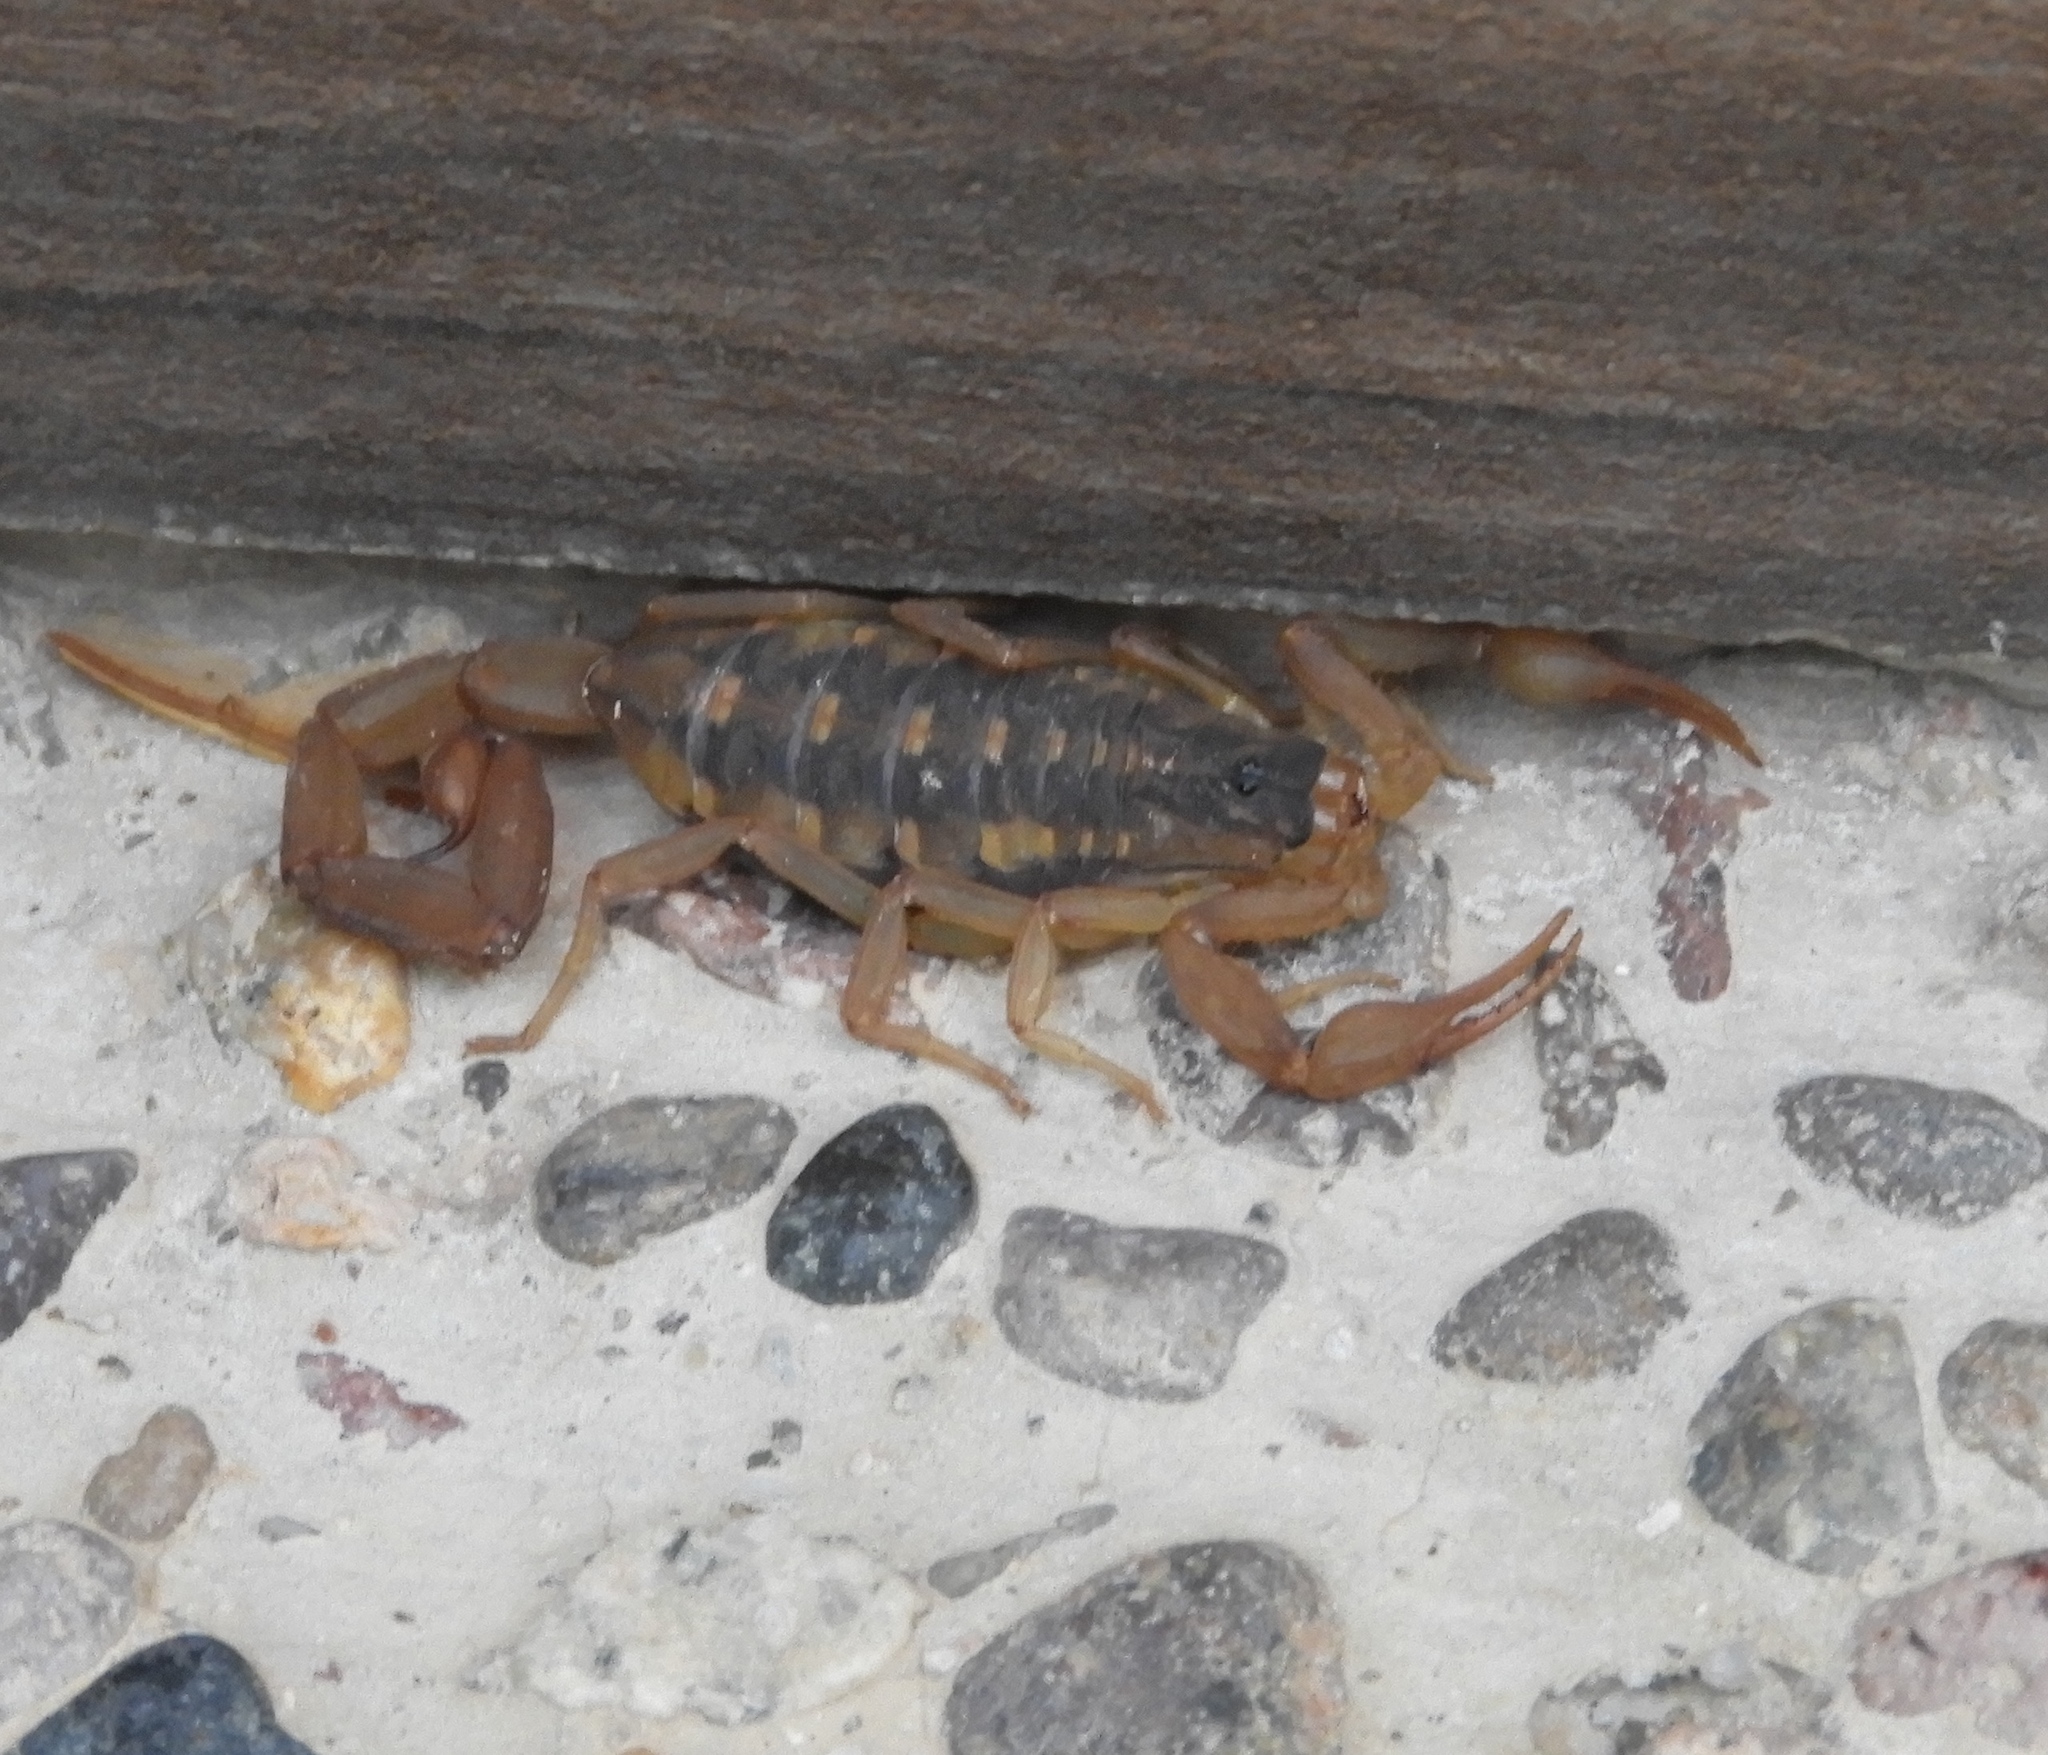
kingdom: Animalia
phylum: Arthropoda
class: Arachnida
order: Scorpiones
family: Buthidae
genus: Centruroides
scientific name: Centruroides baldazoi
